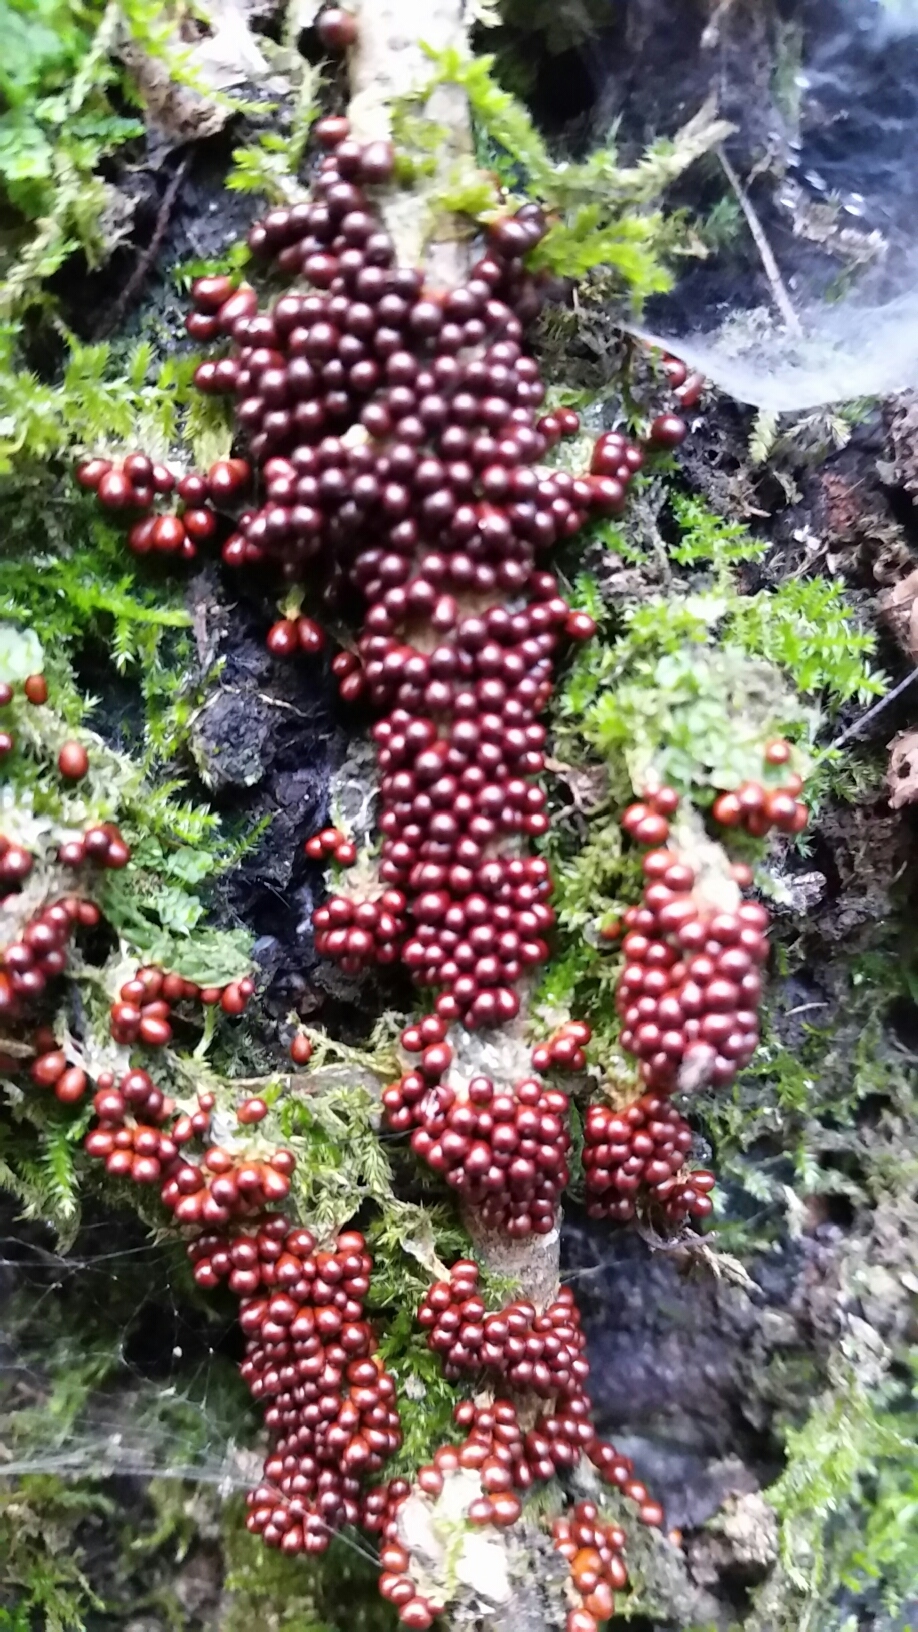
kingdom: Protozoa
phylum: Mycetozoa
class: Myxomycetes
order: Physarales
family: Physaraceae
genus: Leocarpus
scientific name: Leocarpus fragilis
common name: Insect-egg slime
